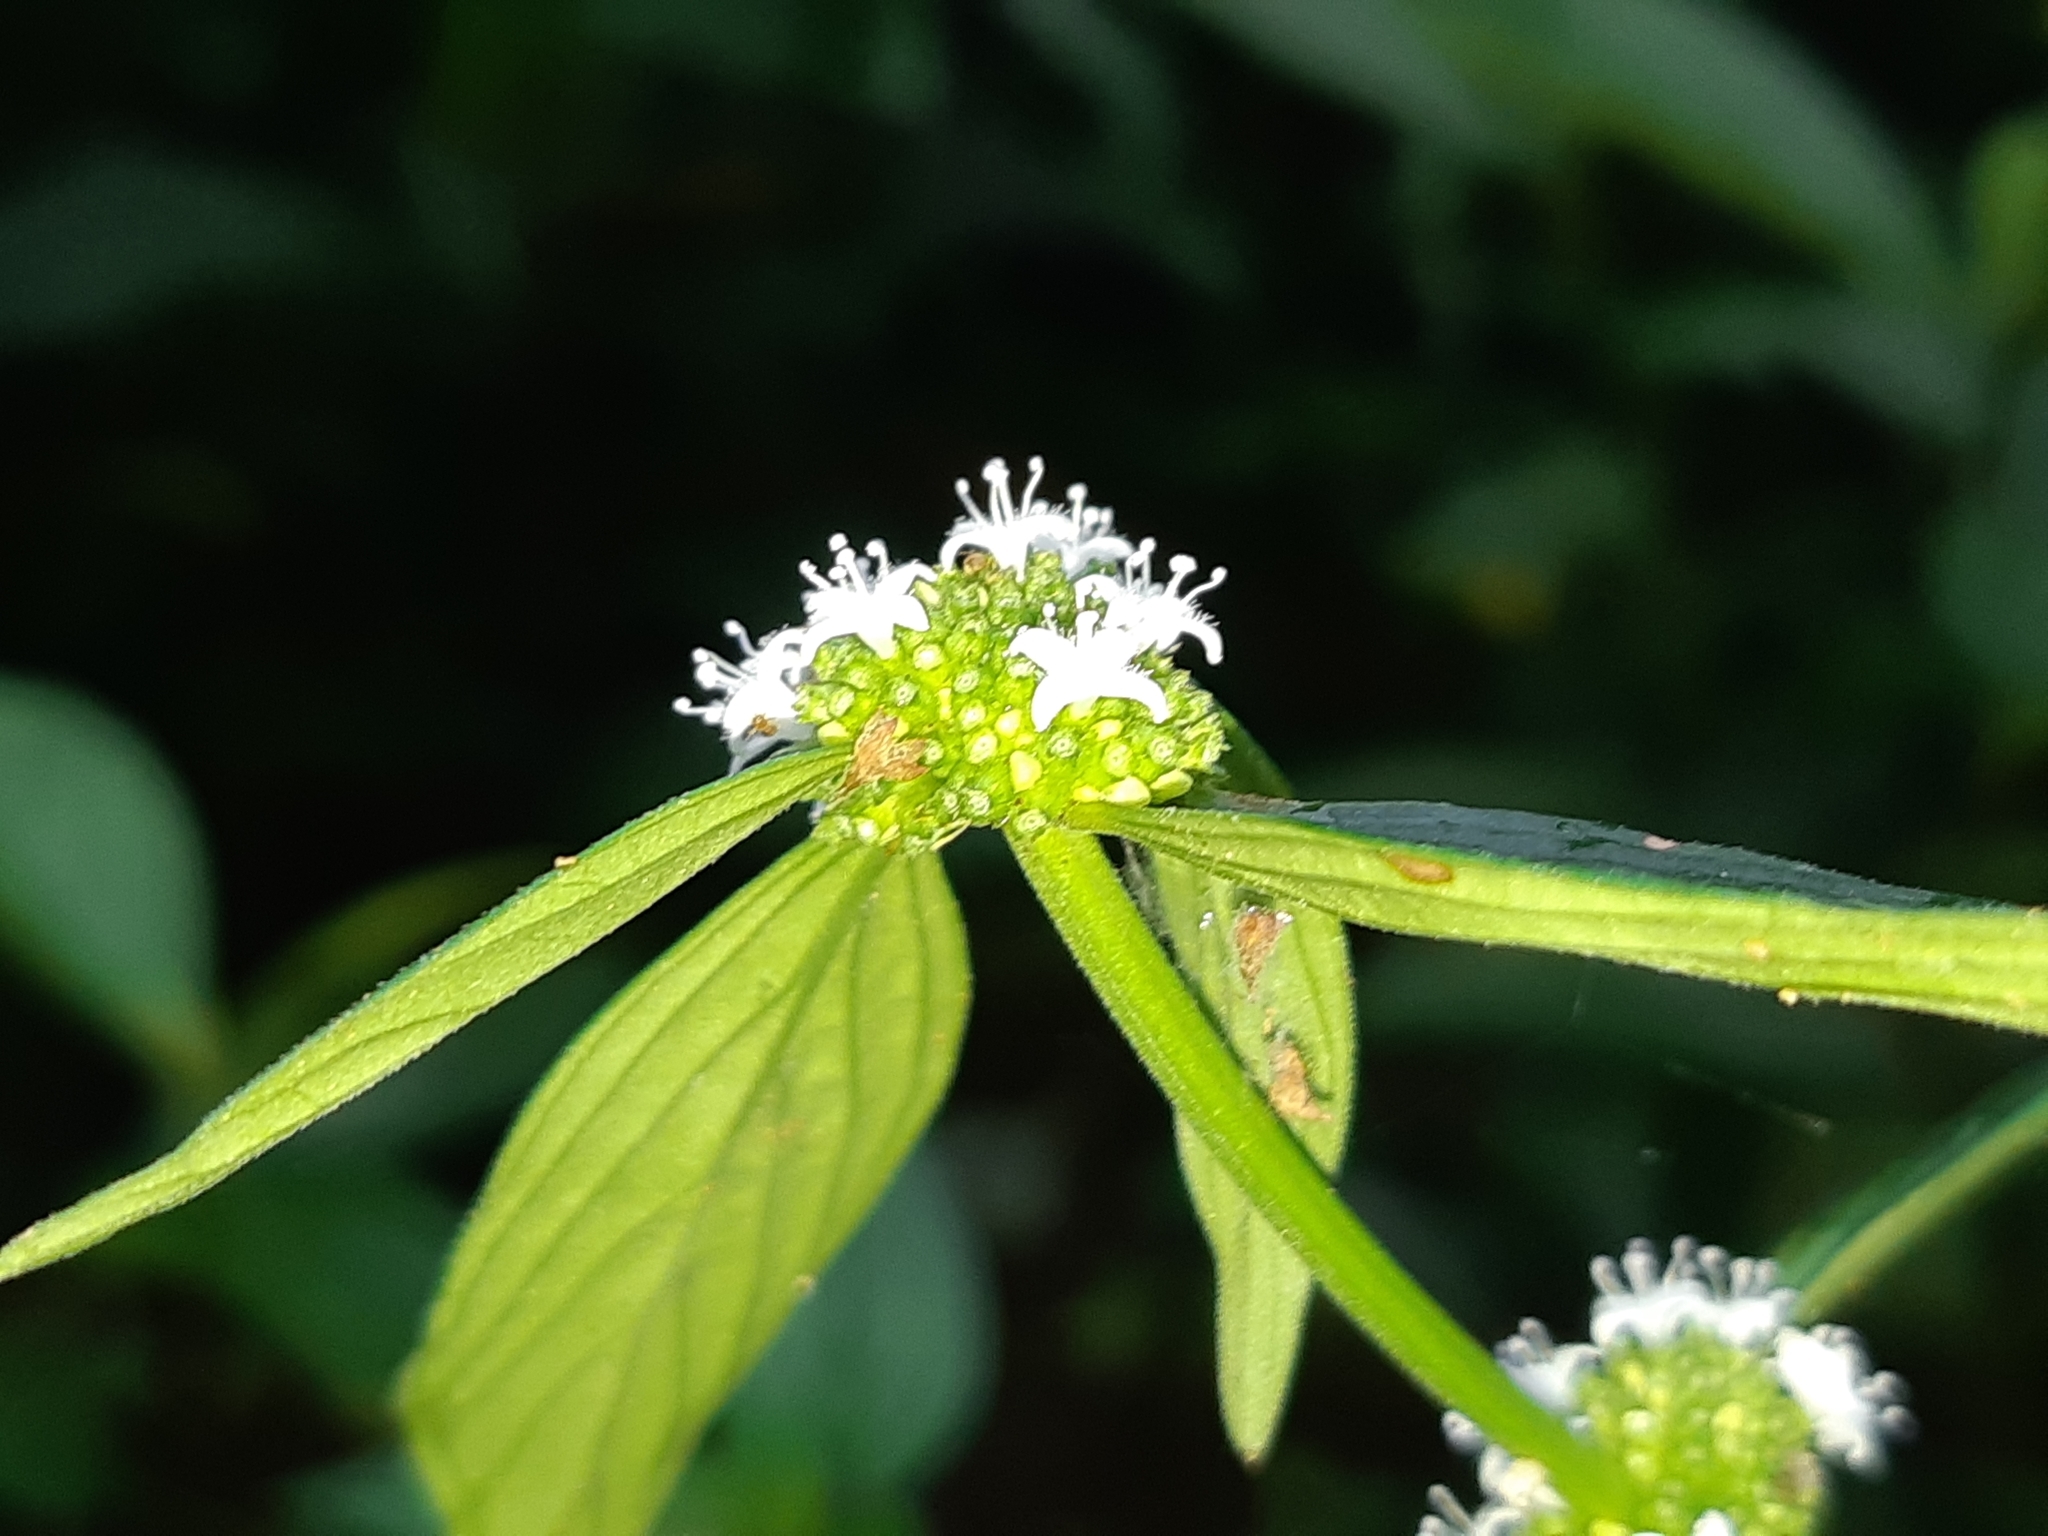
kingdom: Plantae
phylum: Tracheophyta
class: Magnoliopsida
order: Gentianales
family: Rubiaceae
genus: Spermacoce
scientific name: Spermacoce remota
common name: Woodland false buttonweed
